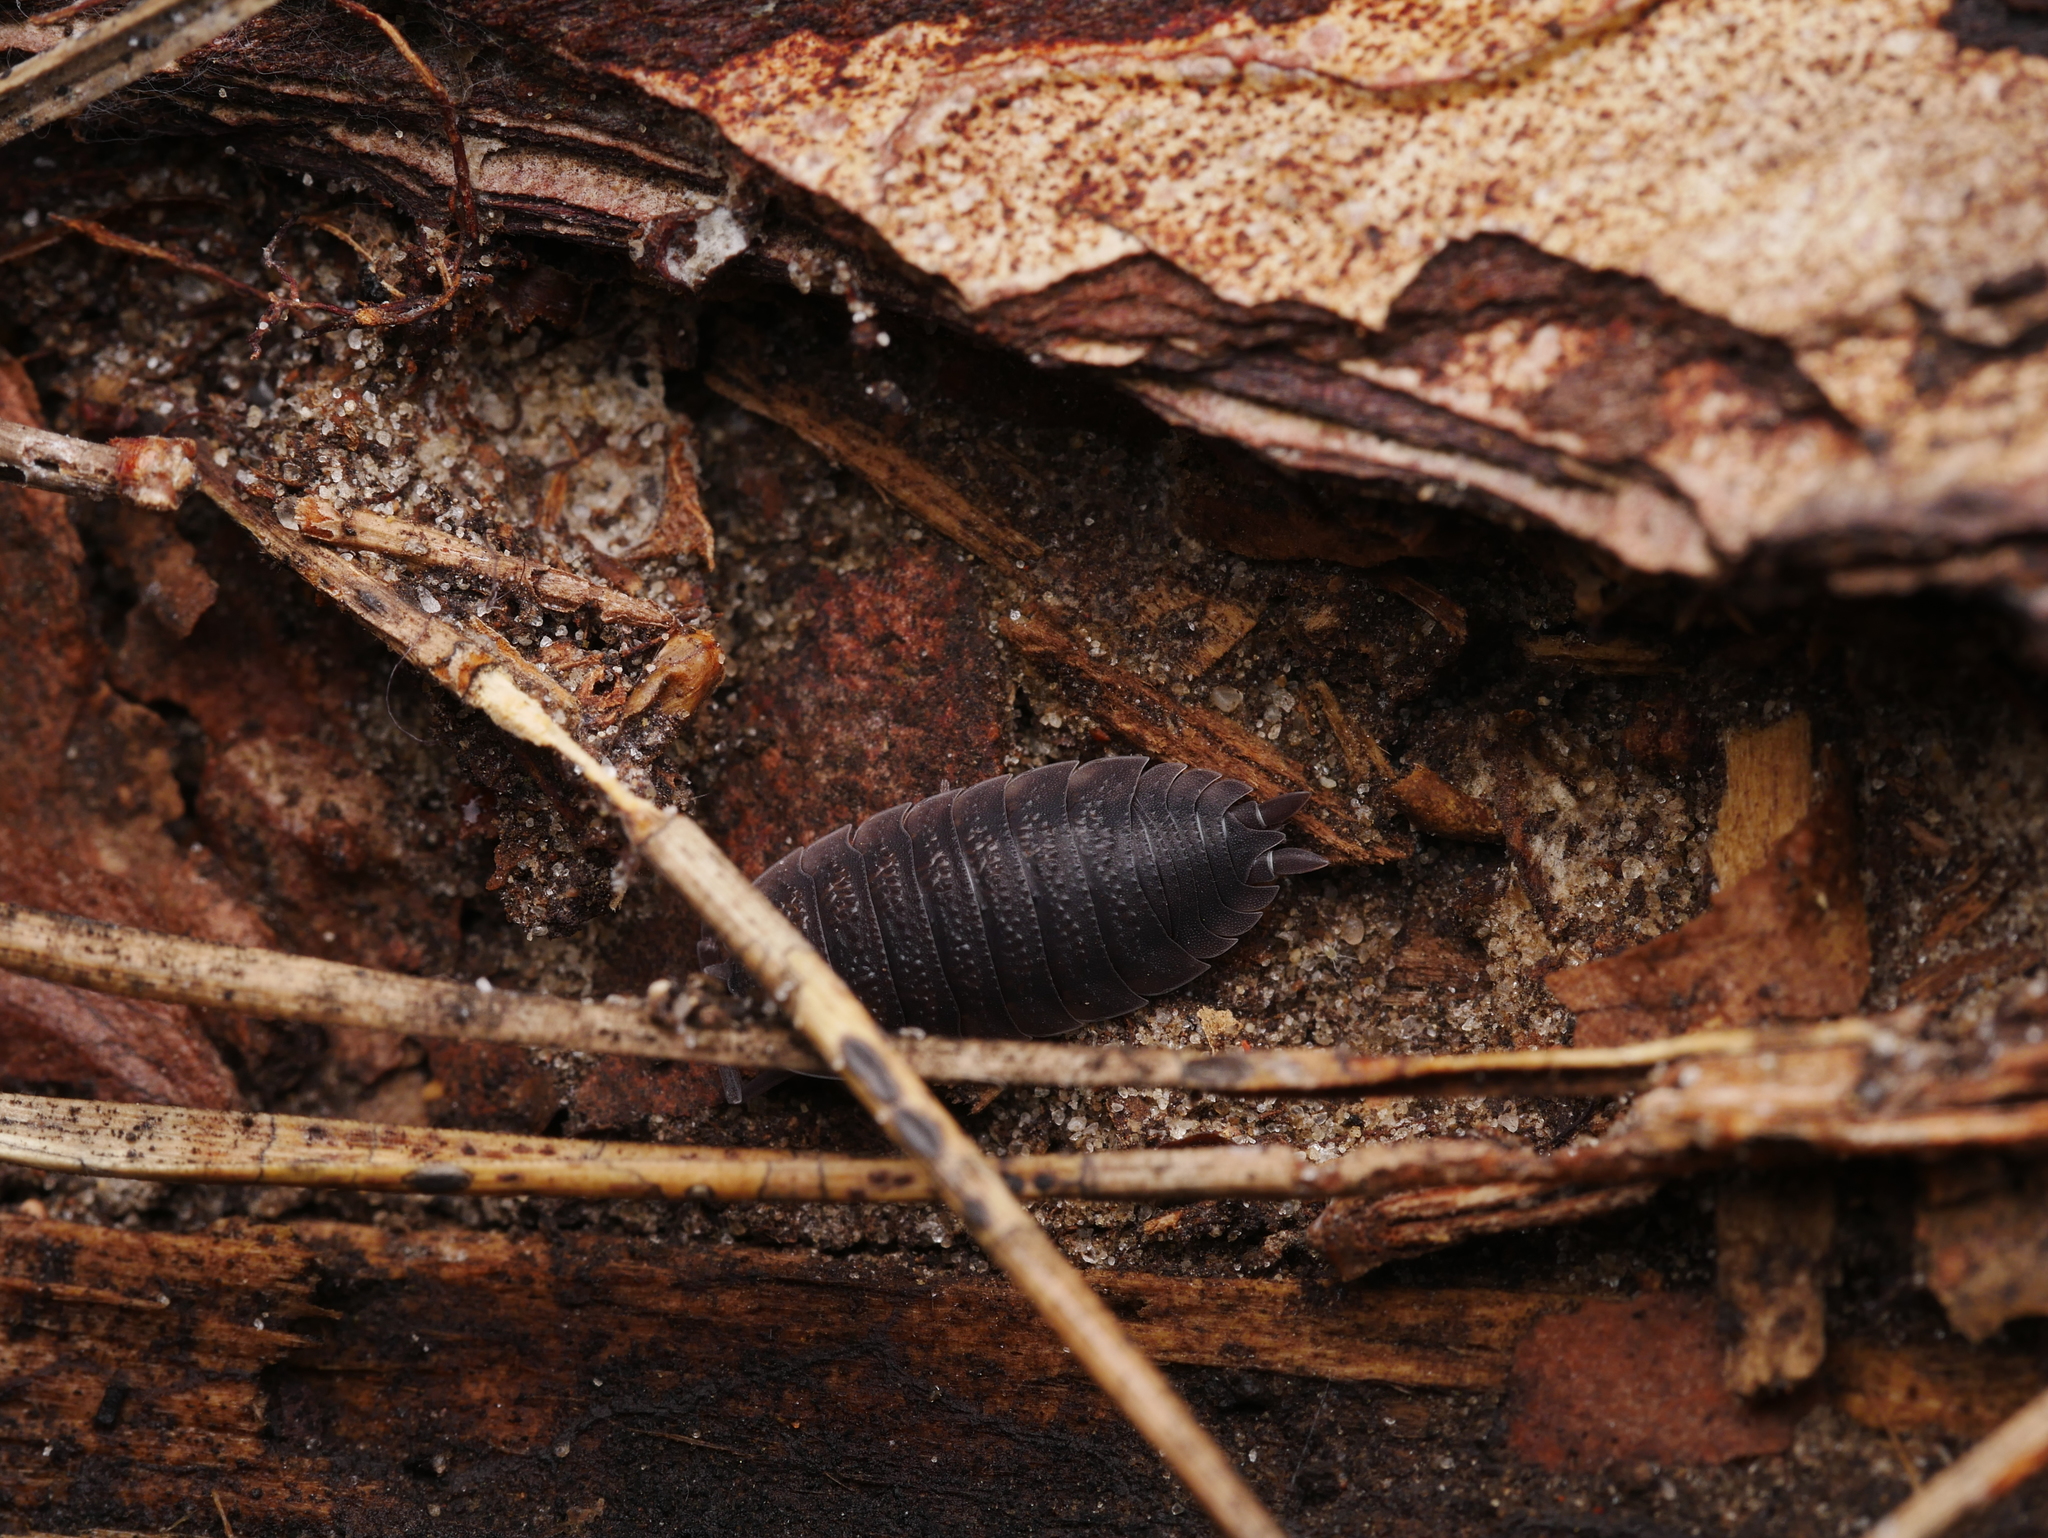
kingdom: Animalia
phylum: Arthropoda
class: Malacostraca
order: Isopoda
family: Porcellionidae
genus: Porcellio
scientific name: Porcellio scaber
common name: Common rough woodlouse
